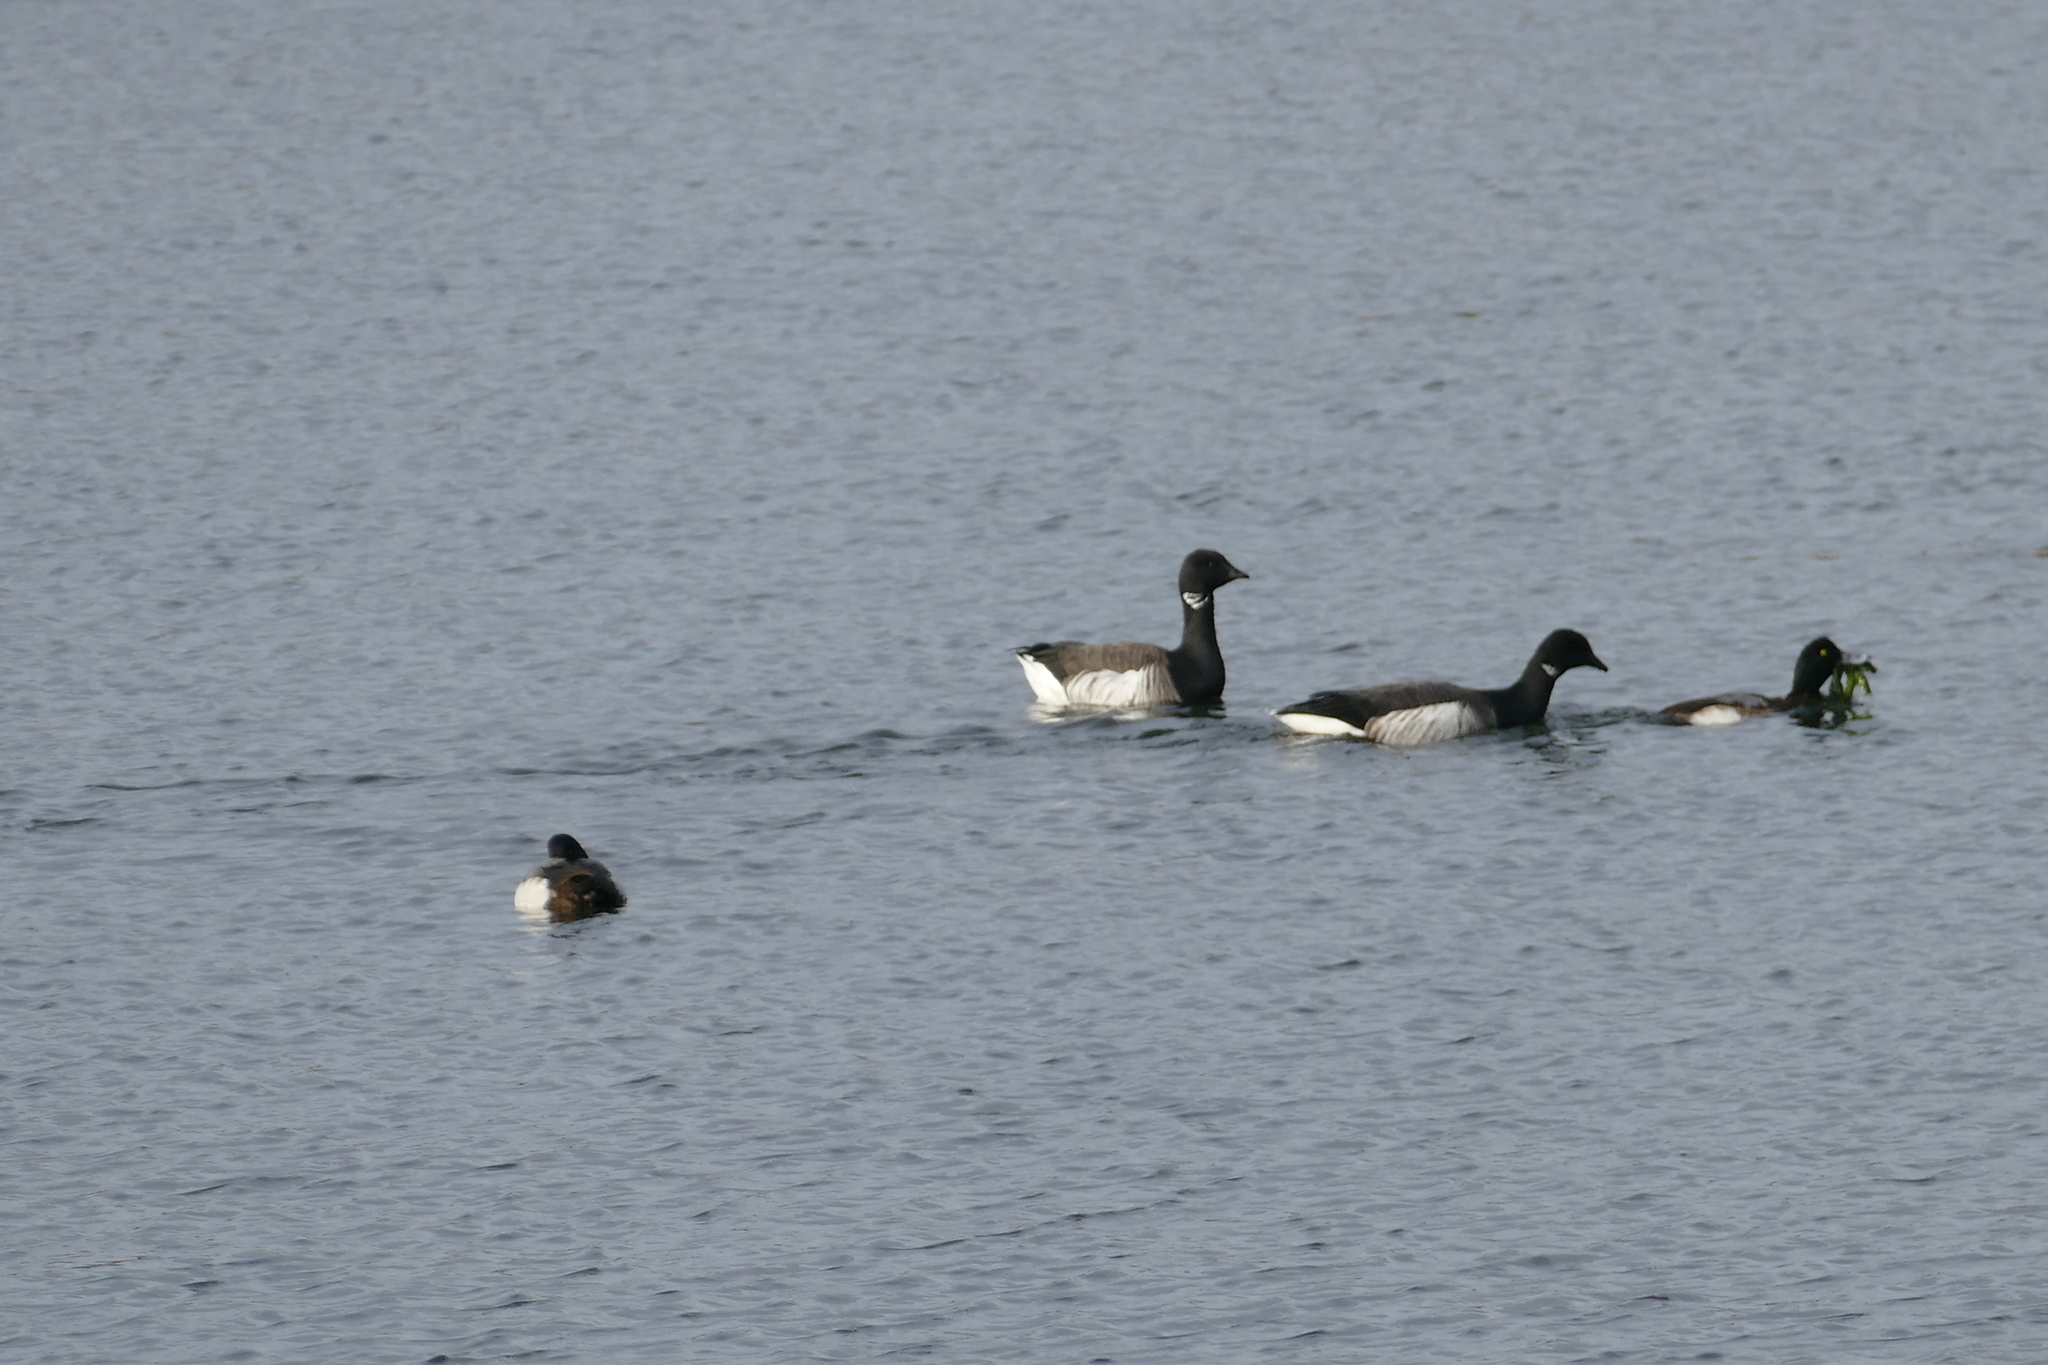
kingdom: Animalia
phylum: Chordata
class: Aves
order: Anseriformes
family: Anatidae
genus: Branta
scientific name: Branta bernicla
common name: Brant goose
